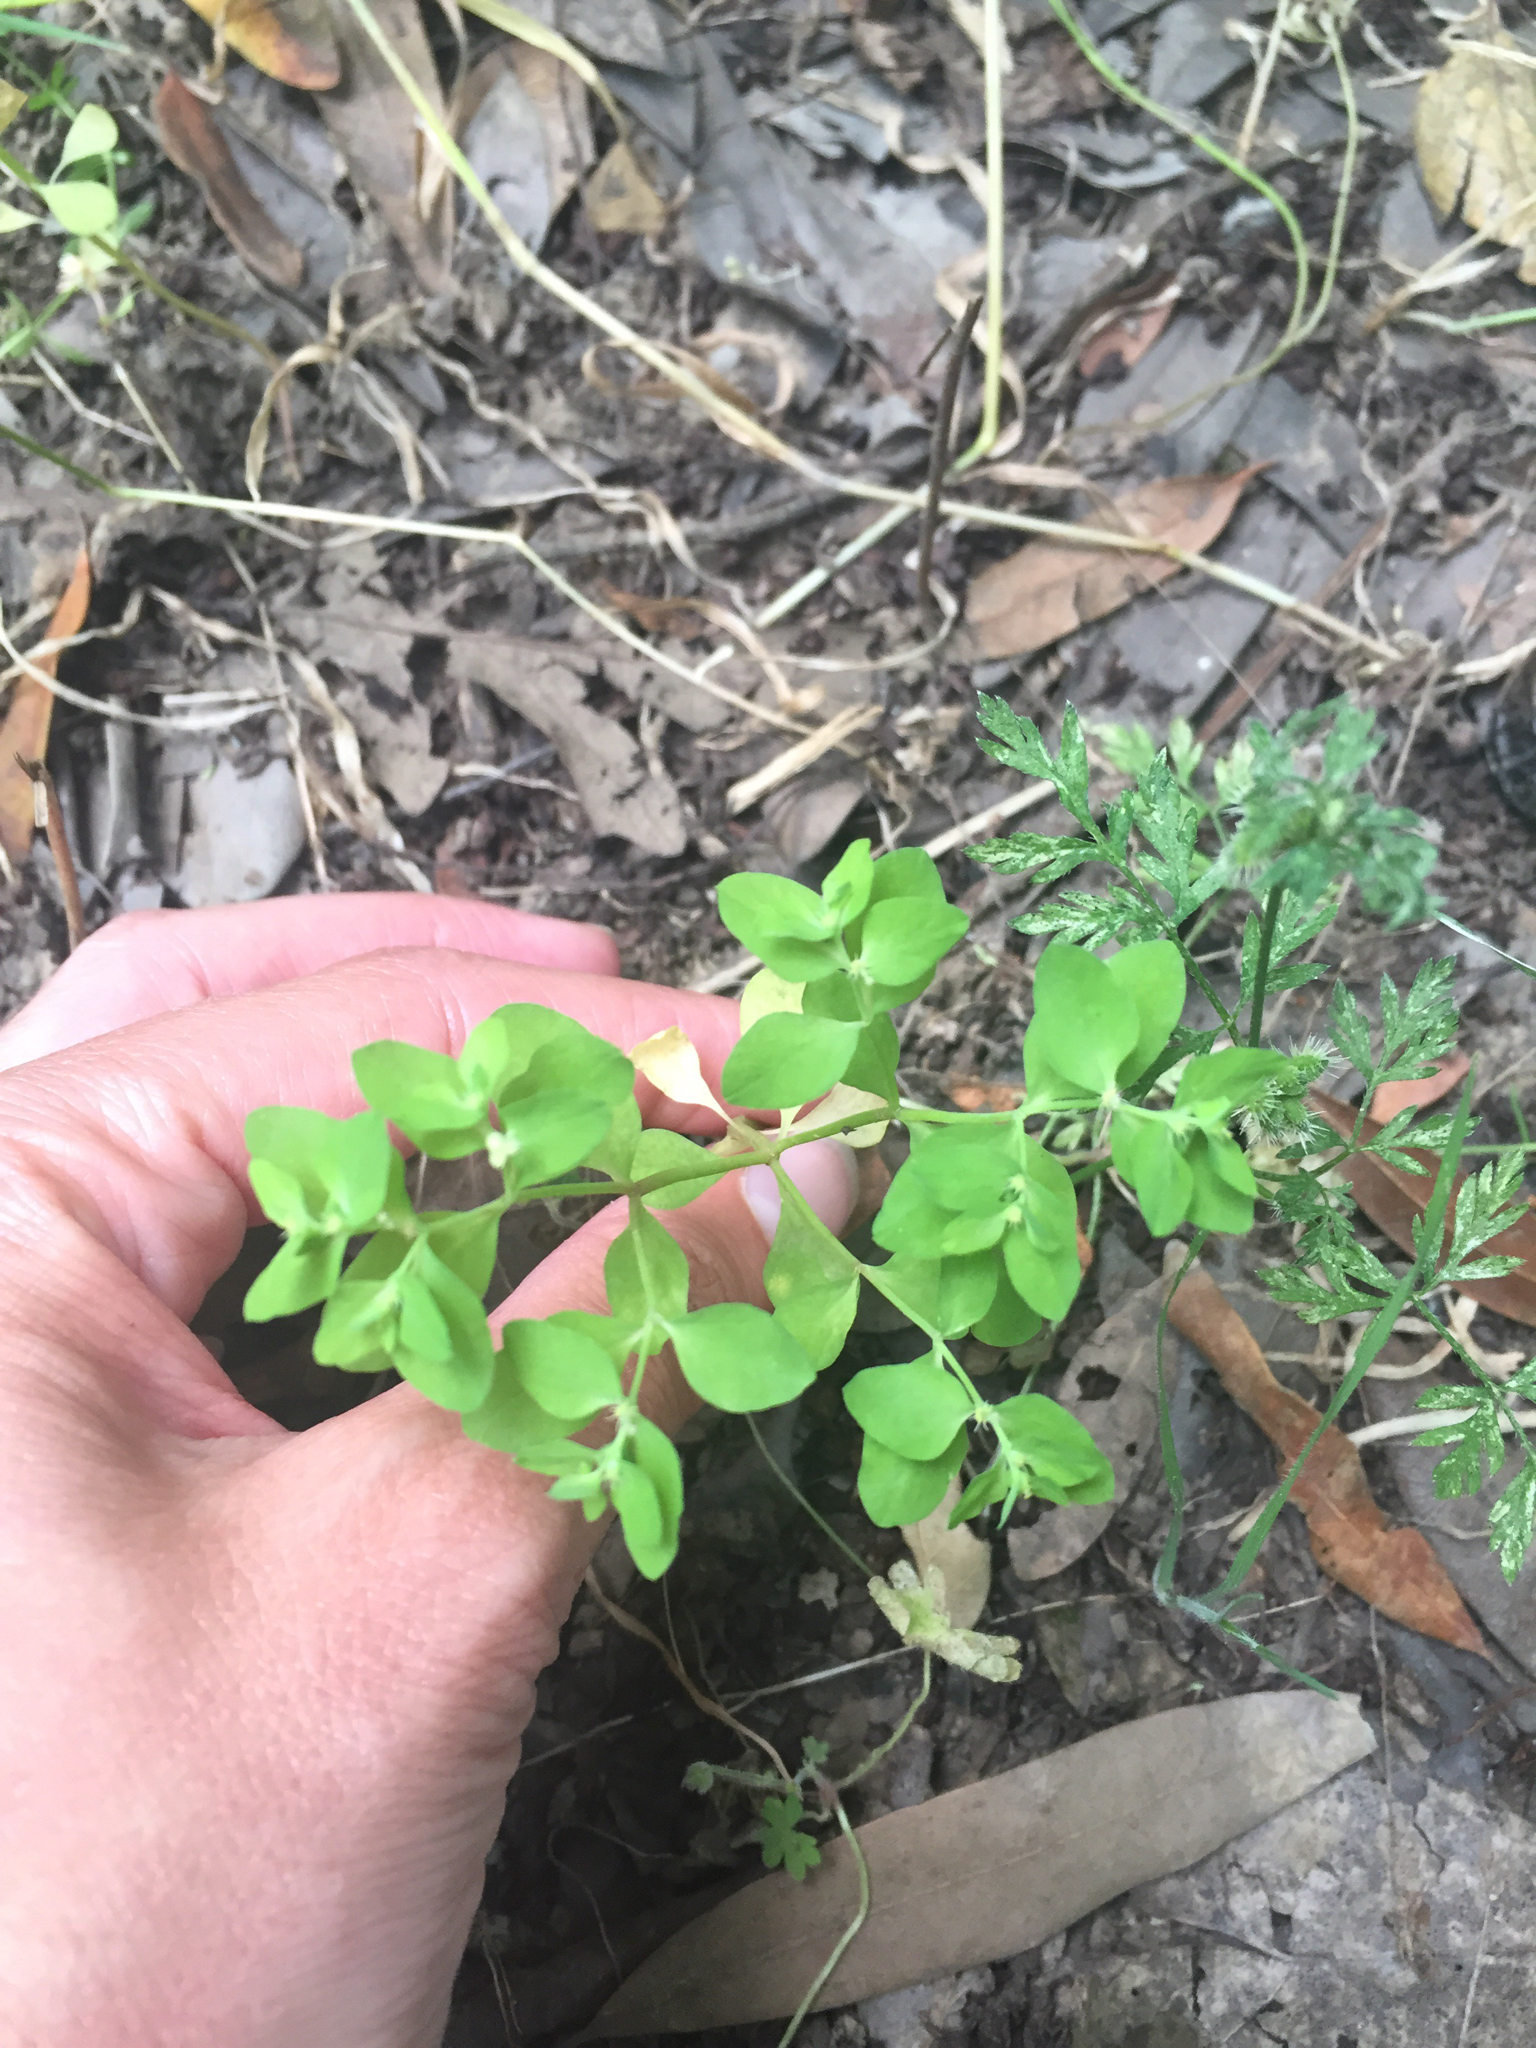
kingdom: Plantae
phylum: Tracheophyta
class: Magnoliopsida
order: Malpighiales
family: Euphorbiaceae
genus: Euphorbia
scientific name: Euphorbia peplus
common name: Petty spurge
